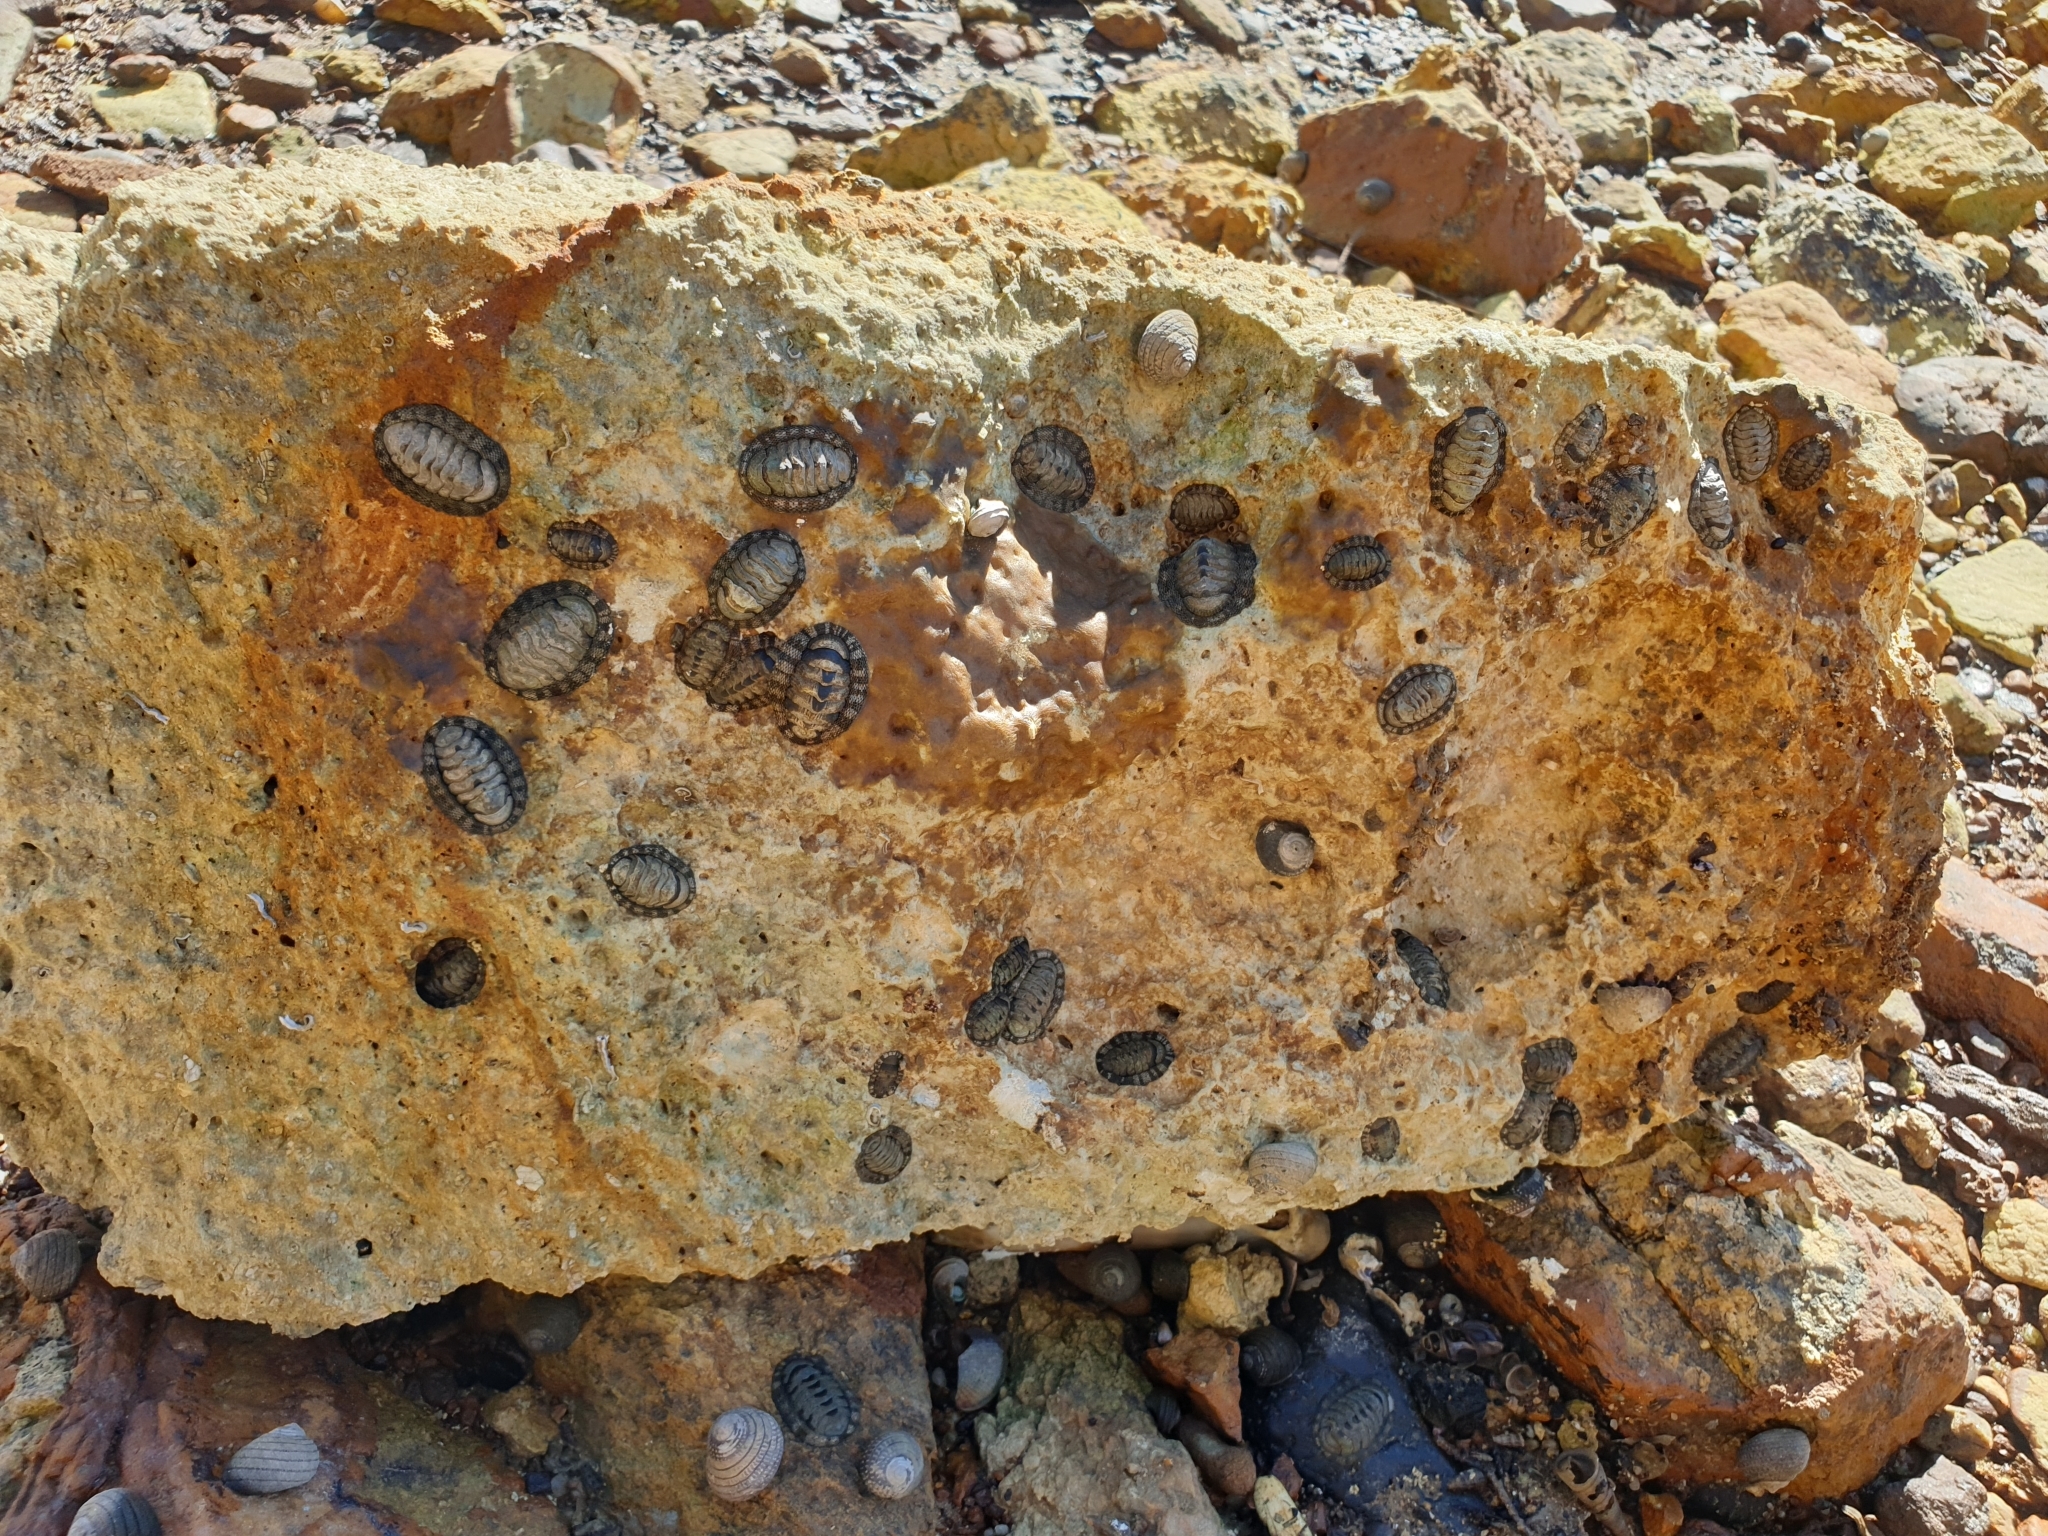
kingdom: Animalia
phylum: Mollusca
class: Polyplacophora
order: Chitonida
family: Chitonidae
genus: Sypharochiton
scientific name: Sypharochiton pelliserpentis
